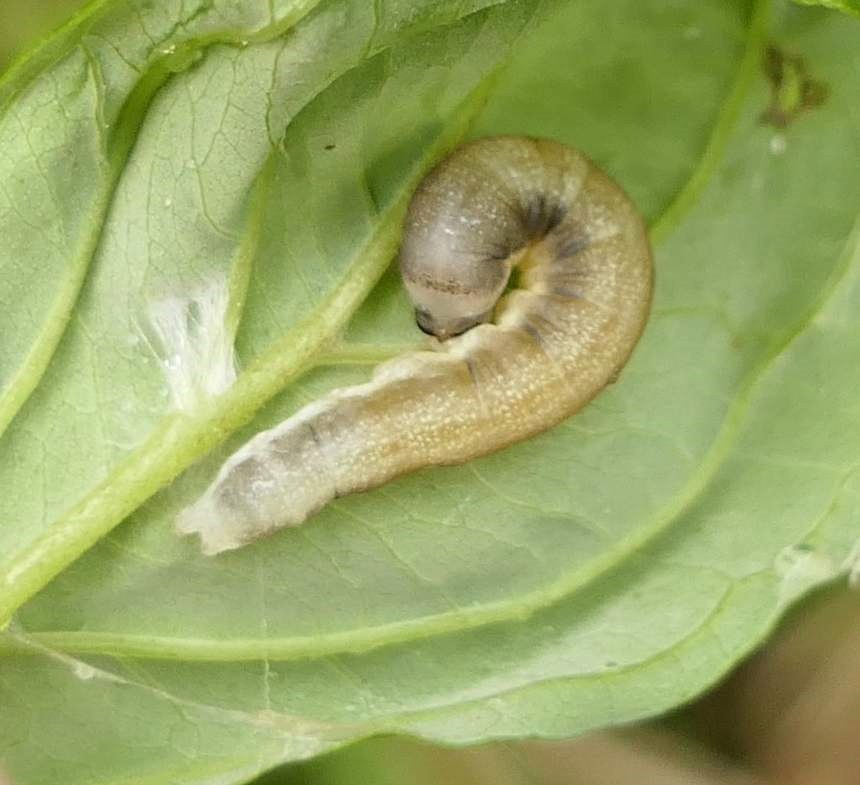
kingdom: Animalia
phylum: Arthropoda
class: Insecta
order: Lepidoptera
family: Drepanidae
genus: Euthyatira
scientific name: Euthyatira pudens
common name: Dogwood thyatirid moth
